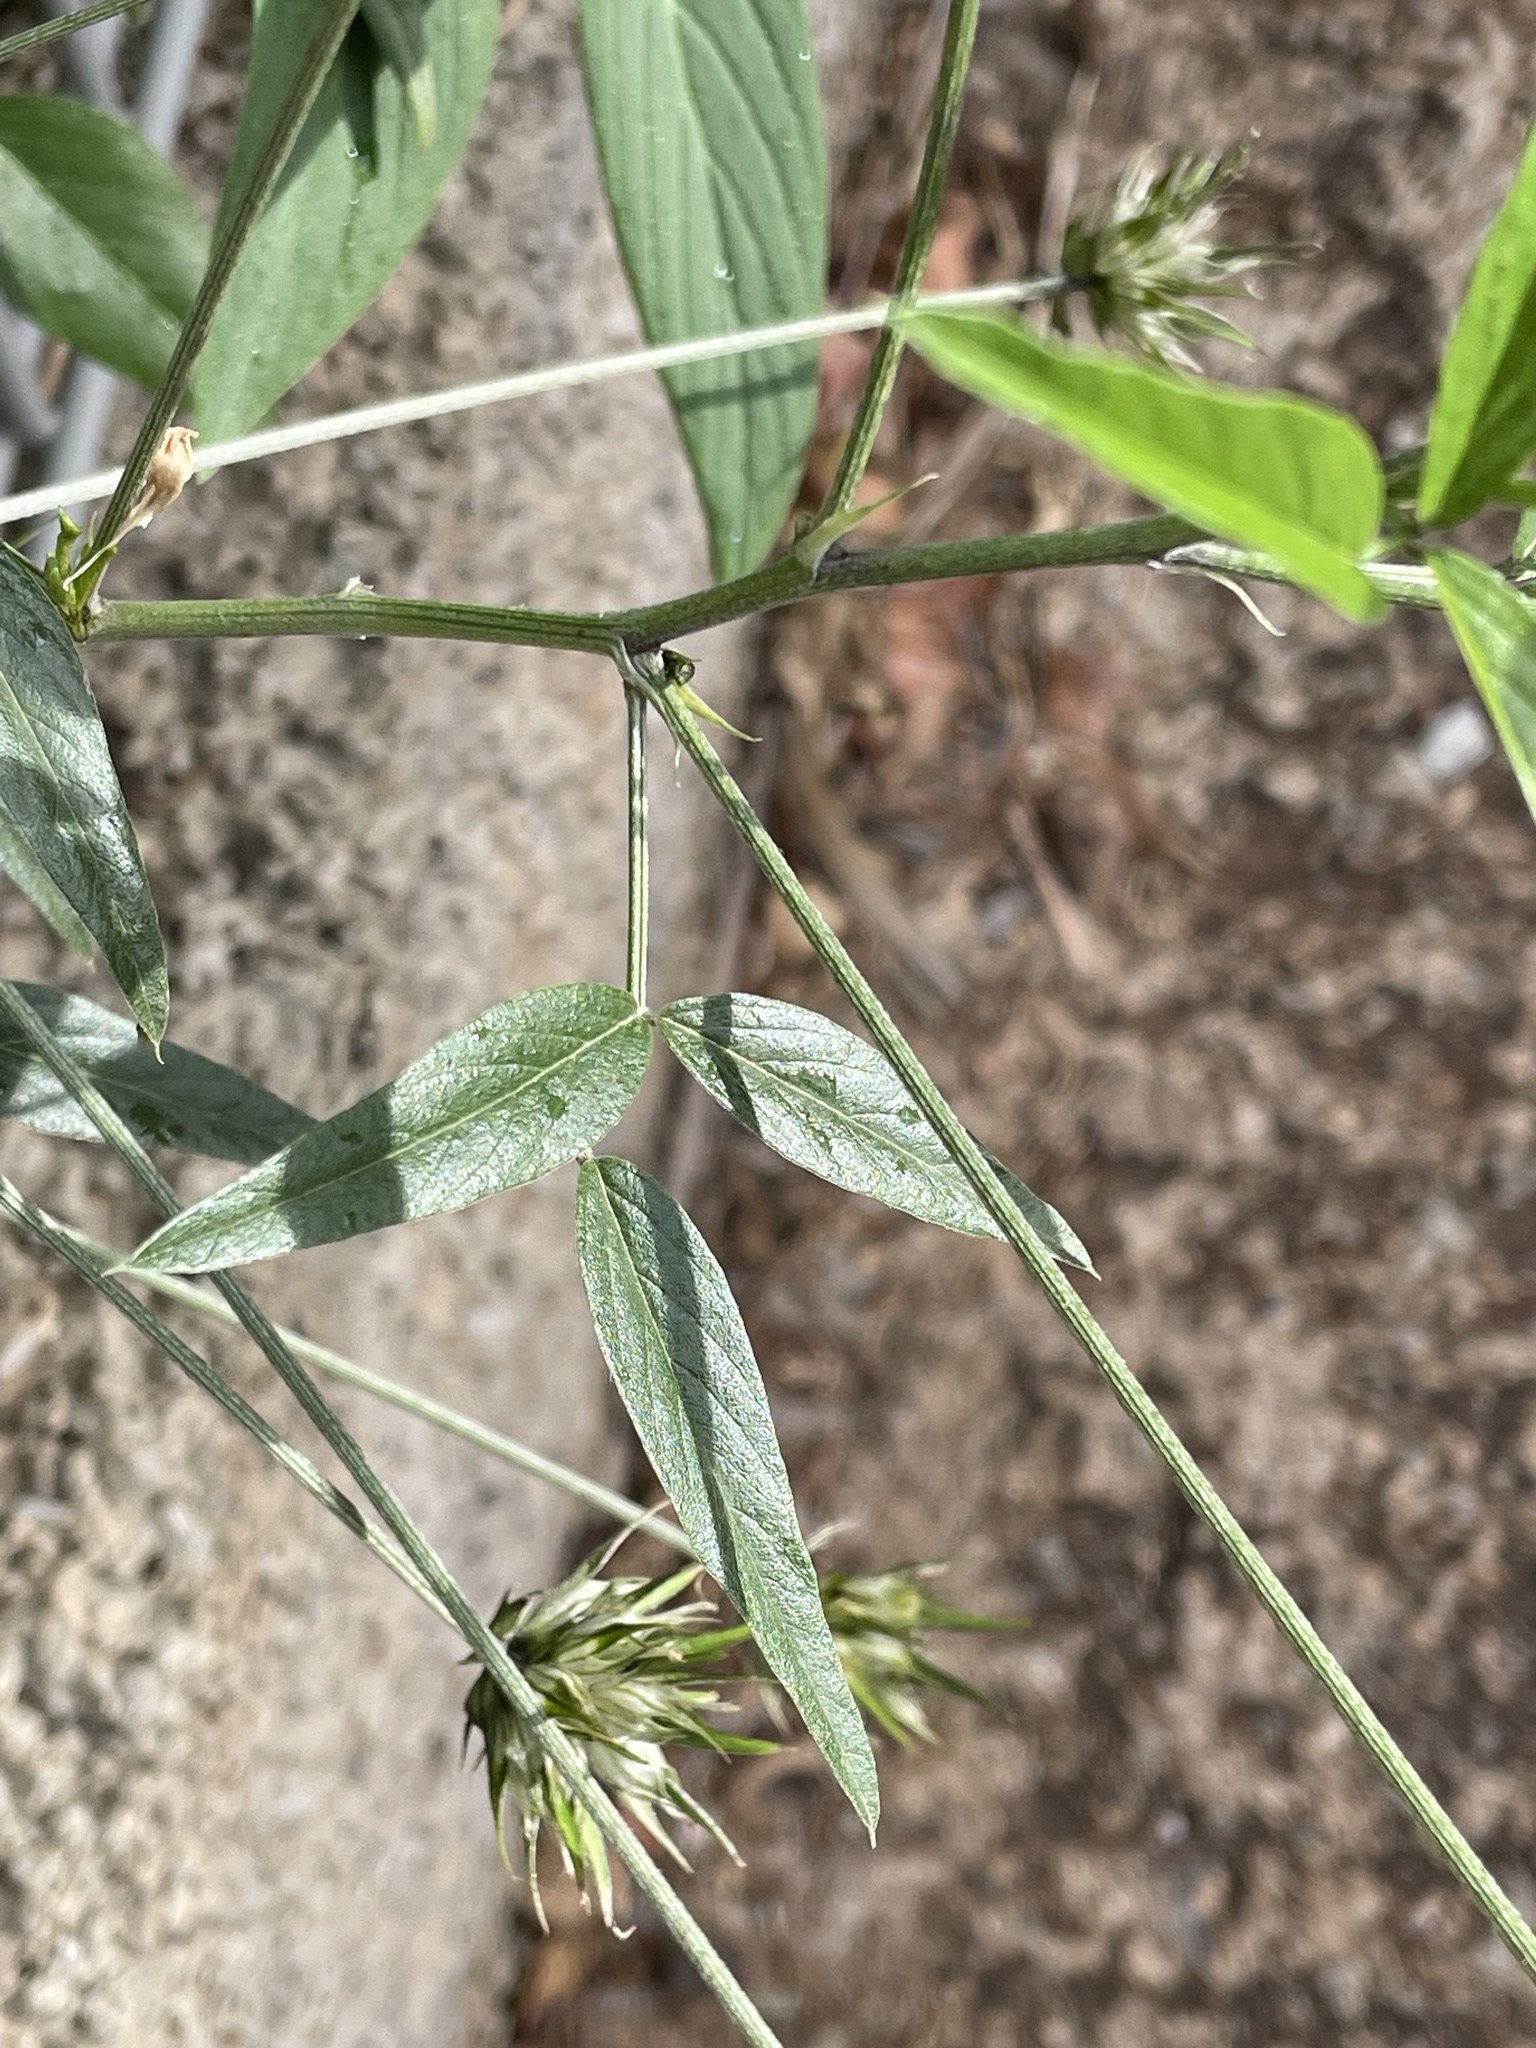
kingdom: Plantae
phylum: Tracheophyta
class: Magnoliopsida
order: Fabales
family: Fabaceae
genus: Bituminaria
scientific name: Bituminaria bituminosa
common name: Arabian pea
